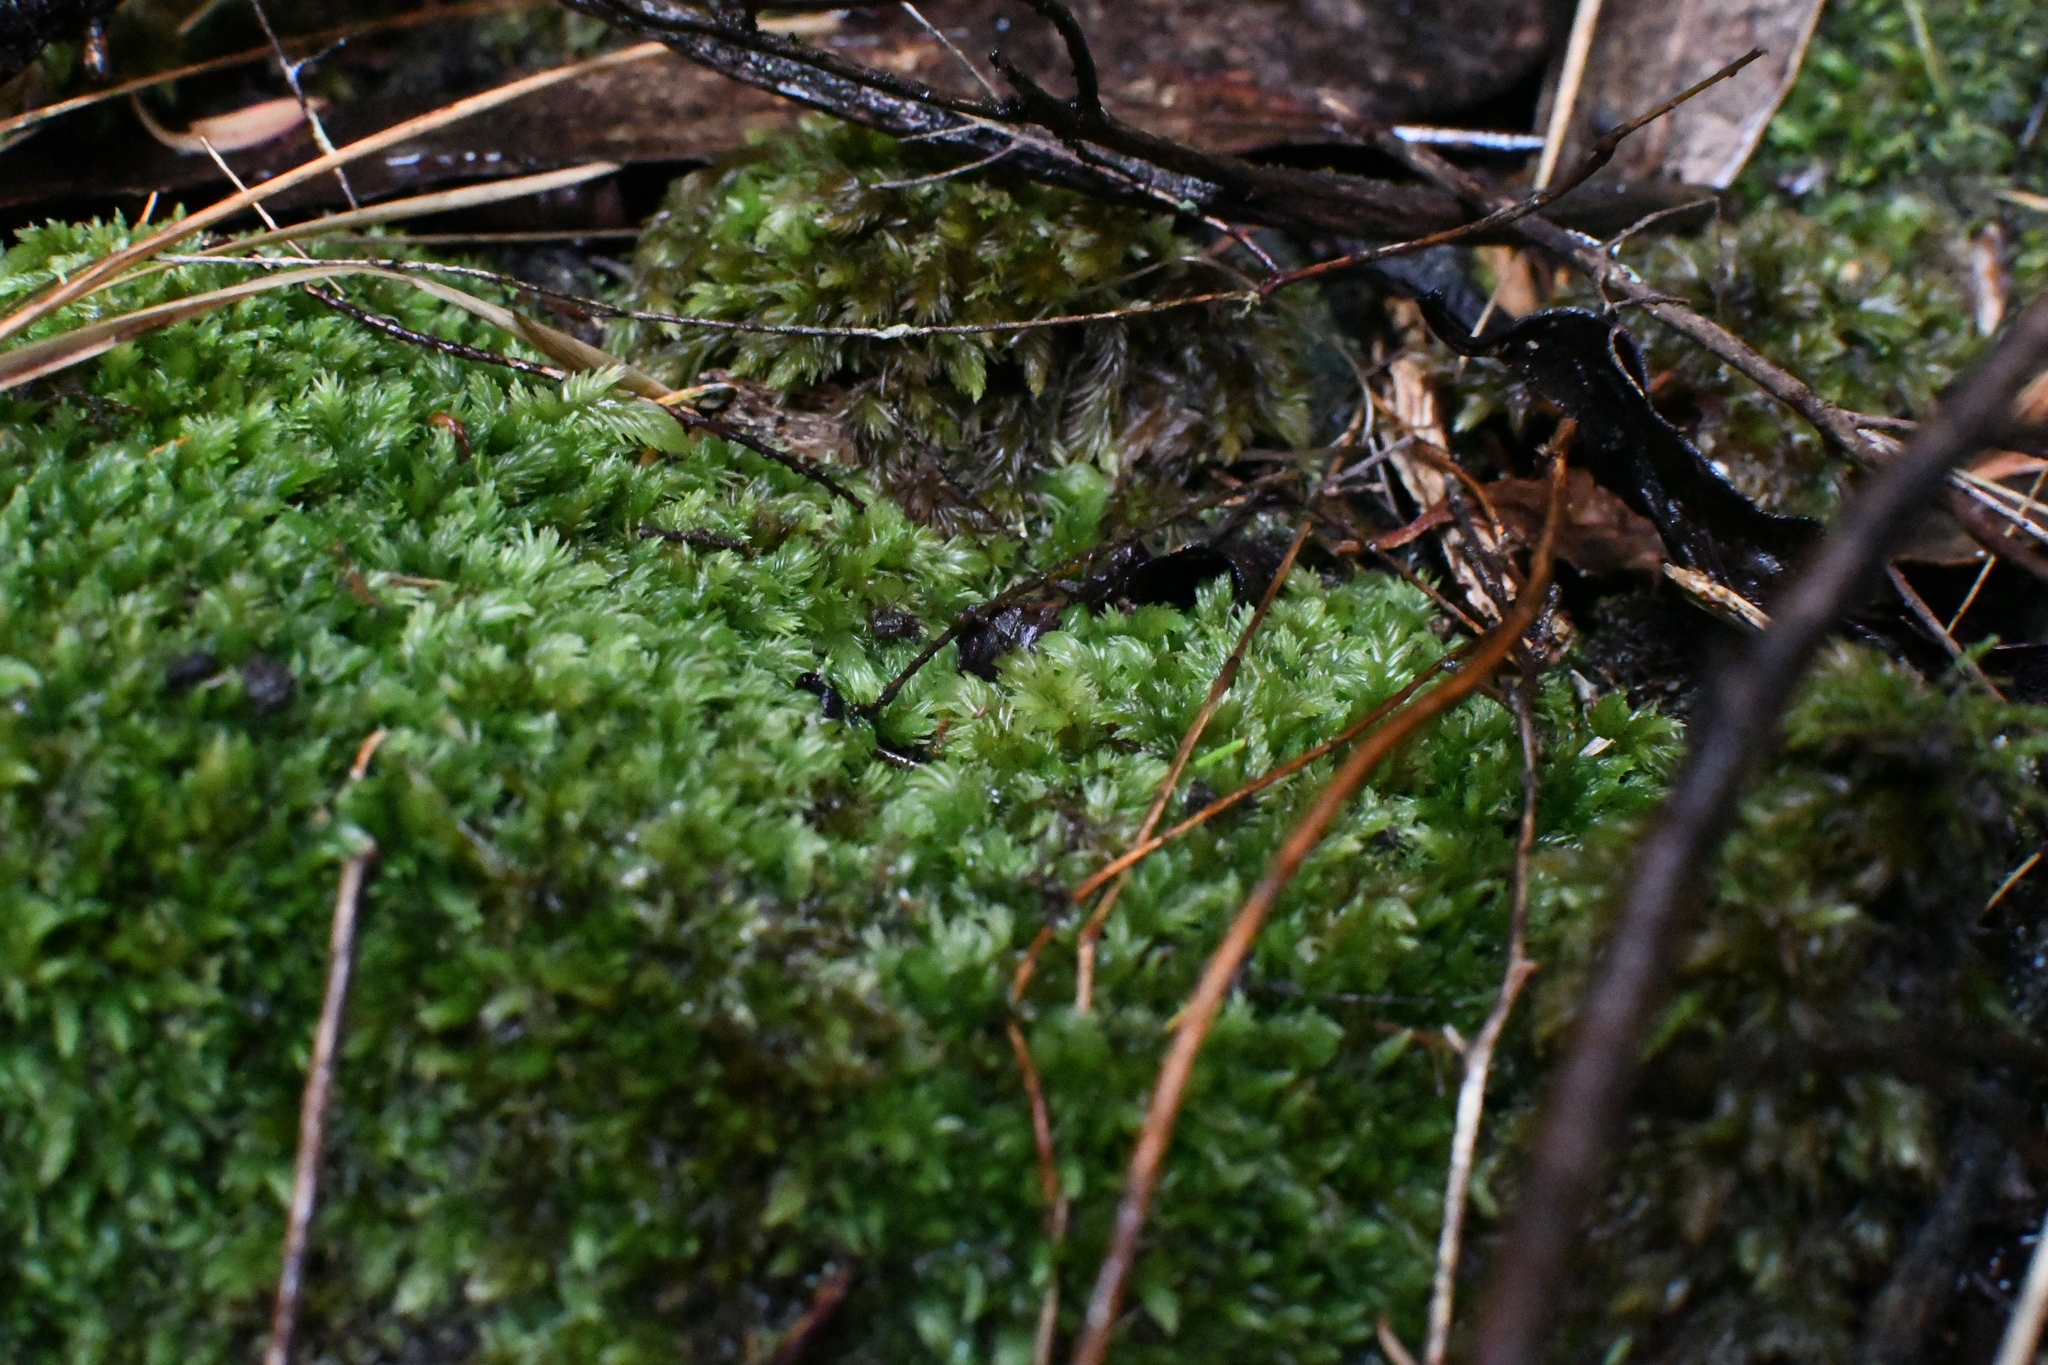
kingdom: Plantae
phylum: Bryophyta
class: Bryopsida
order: Dicranales
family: Leucobryaceae
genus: Leucobryum
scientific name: Leucobryum javense
